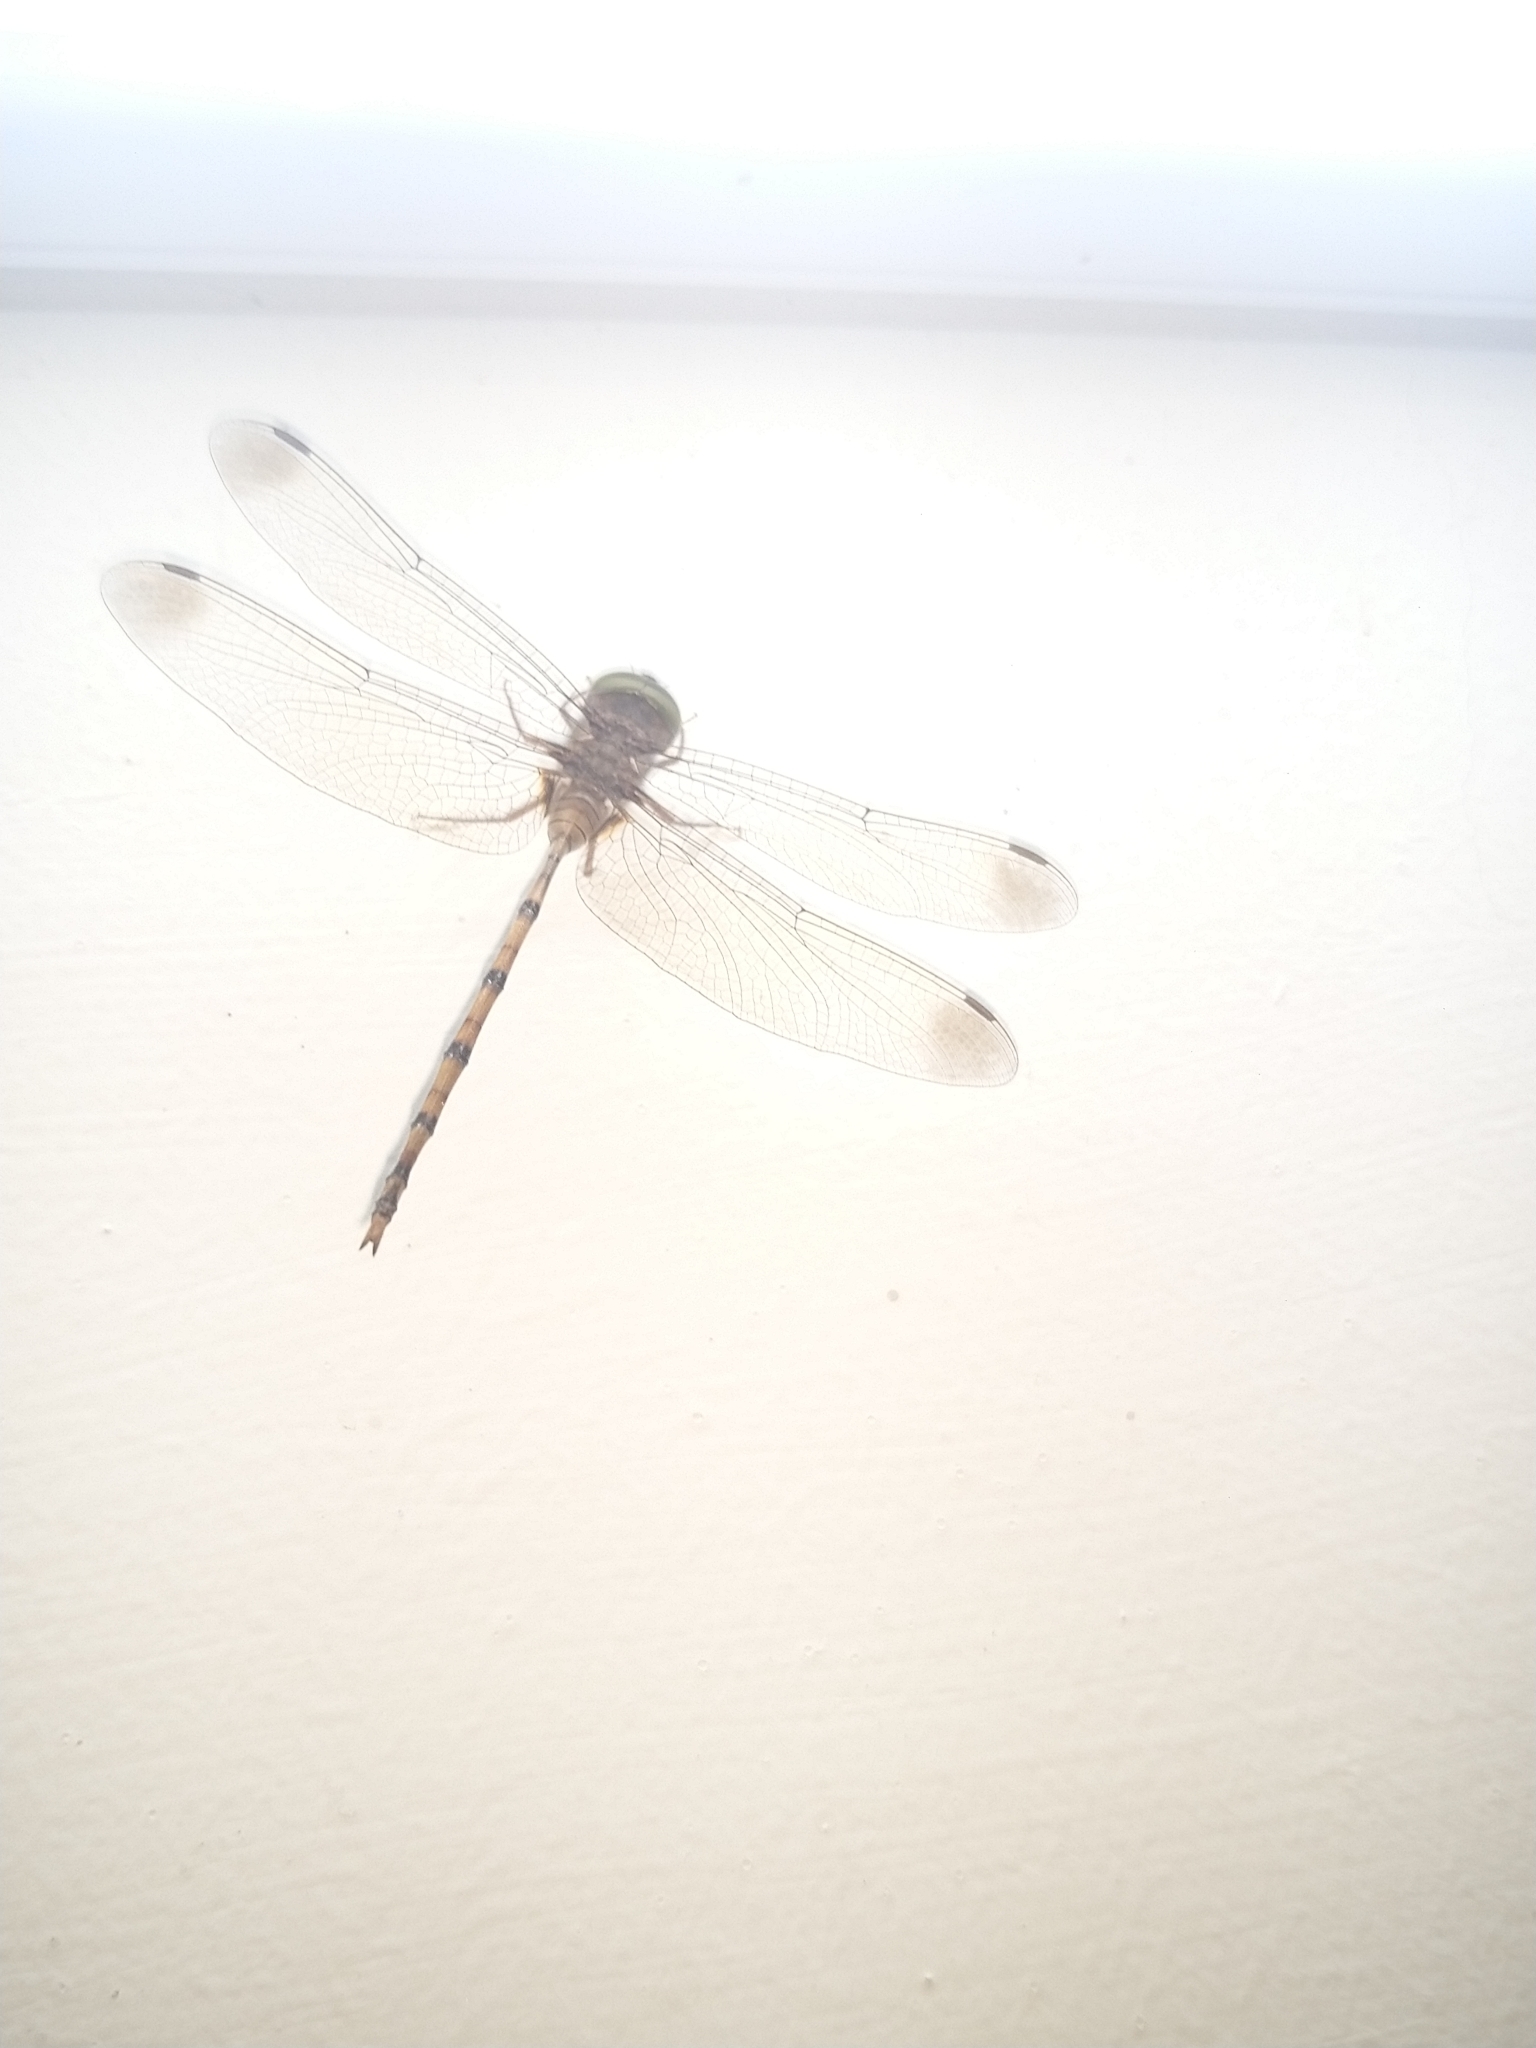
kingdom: Animalia
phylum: Arthropoda
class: Insecta
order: Odonata
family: Libellulidae
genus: Zyxomma
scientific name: Zyxomma petiolatum
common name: Dingy dusk-darter
